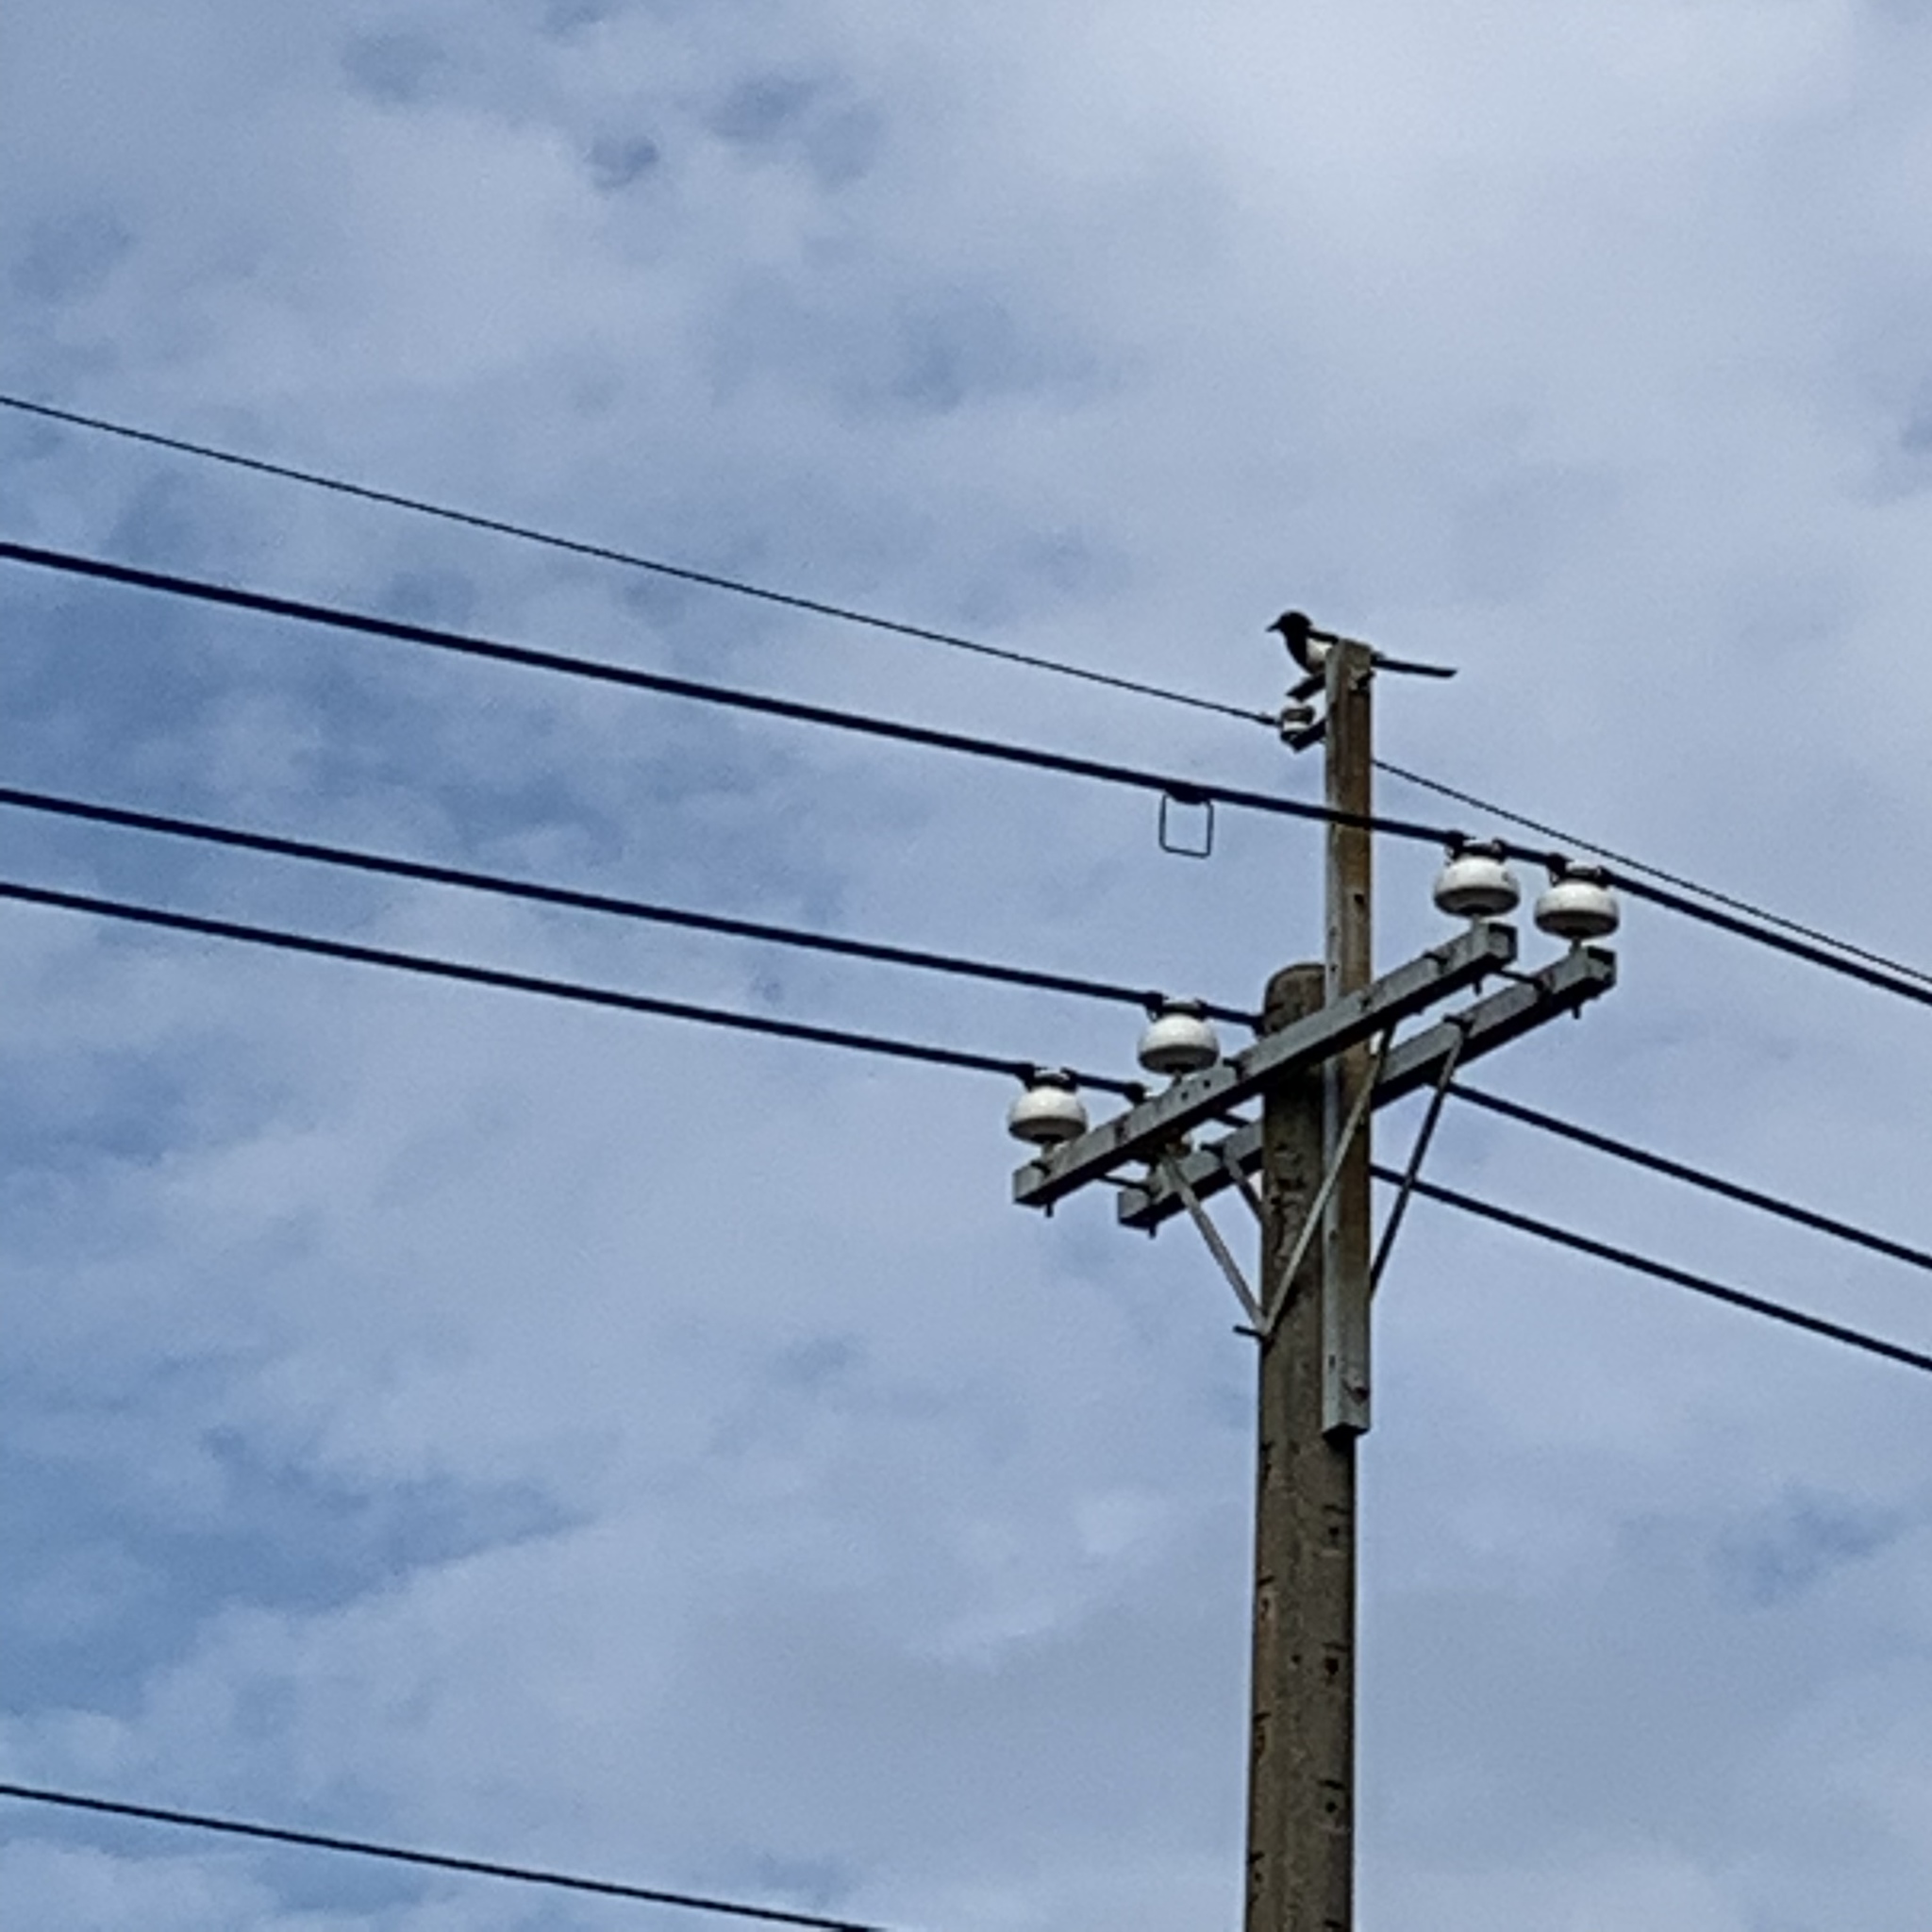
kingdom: Animalia
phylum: Chordata
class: Aves
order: Passeriformes
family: Corvidae
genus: Pica
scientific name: Pica serica
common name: Oriental magpie
